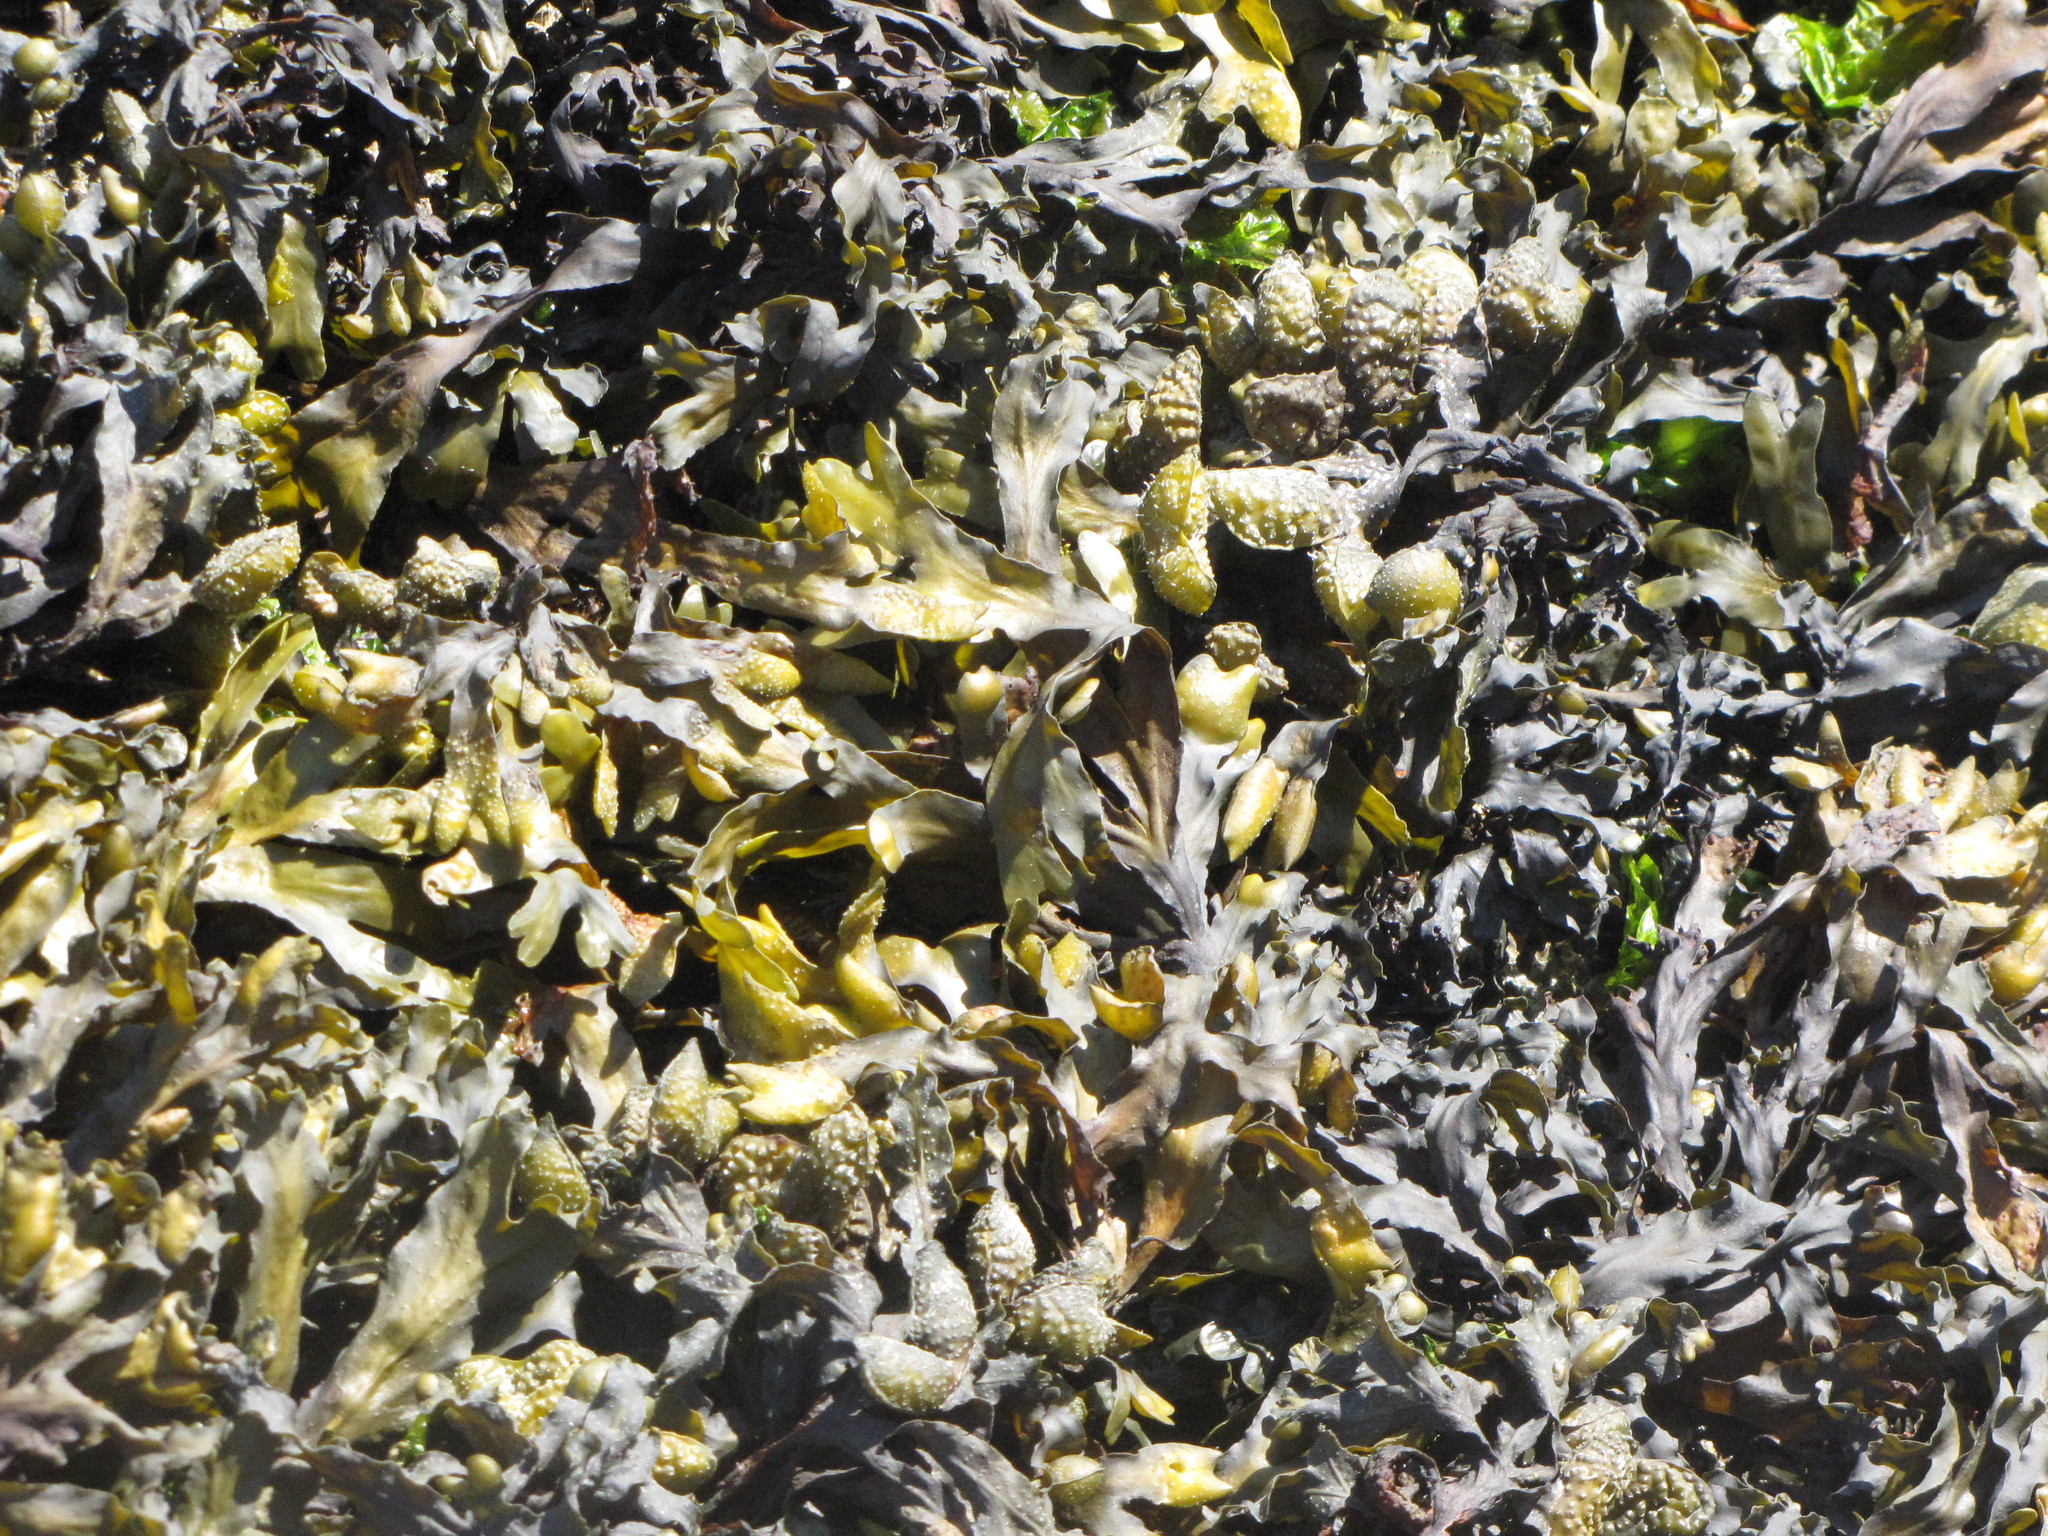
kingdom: Chromista
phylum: Ochrophyta
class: Phaeophyceae
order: Fucales
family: Fucaceae
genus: Fucus
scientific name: Fucus distichus
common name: Rockweed
